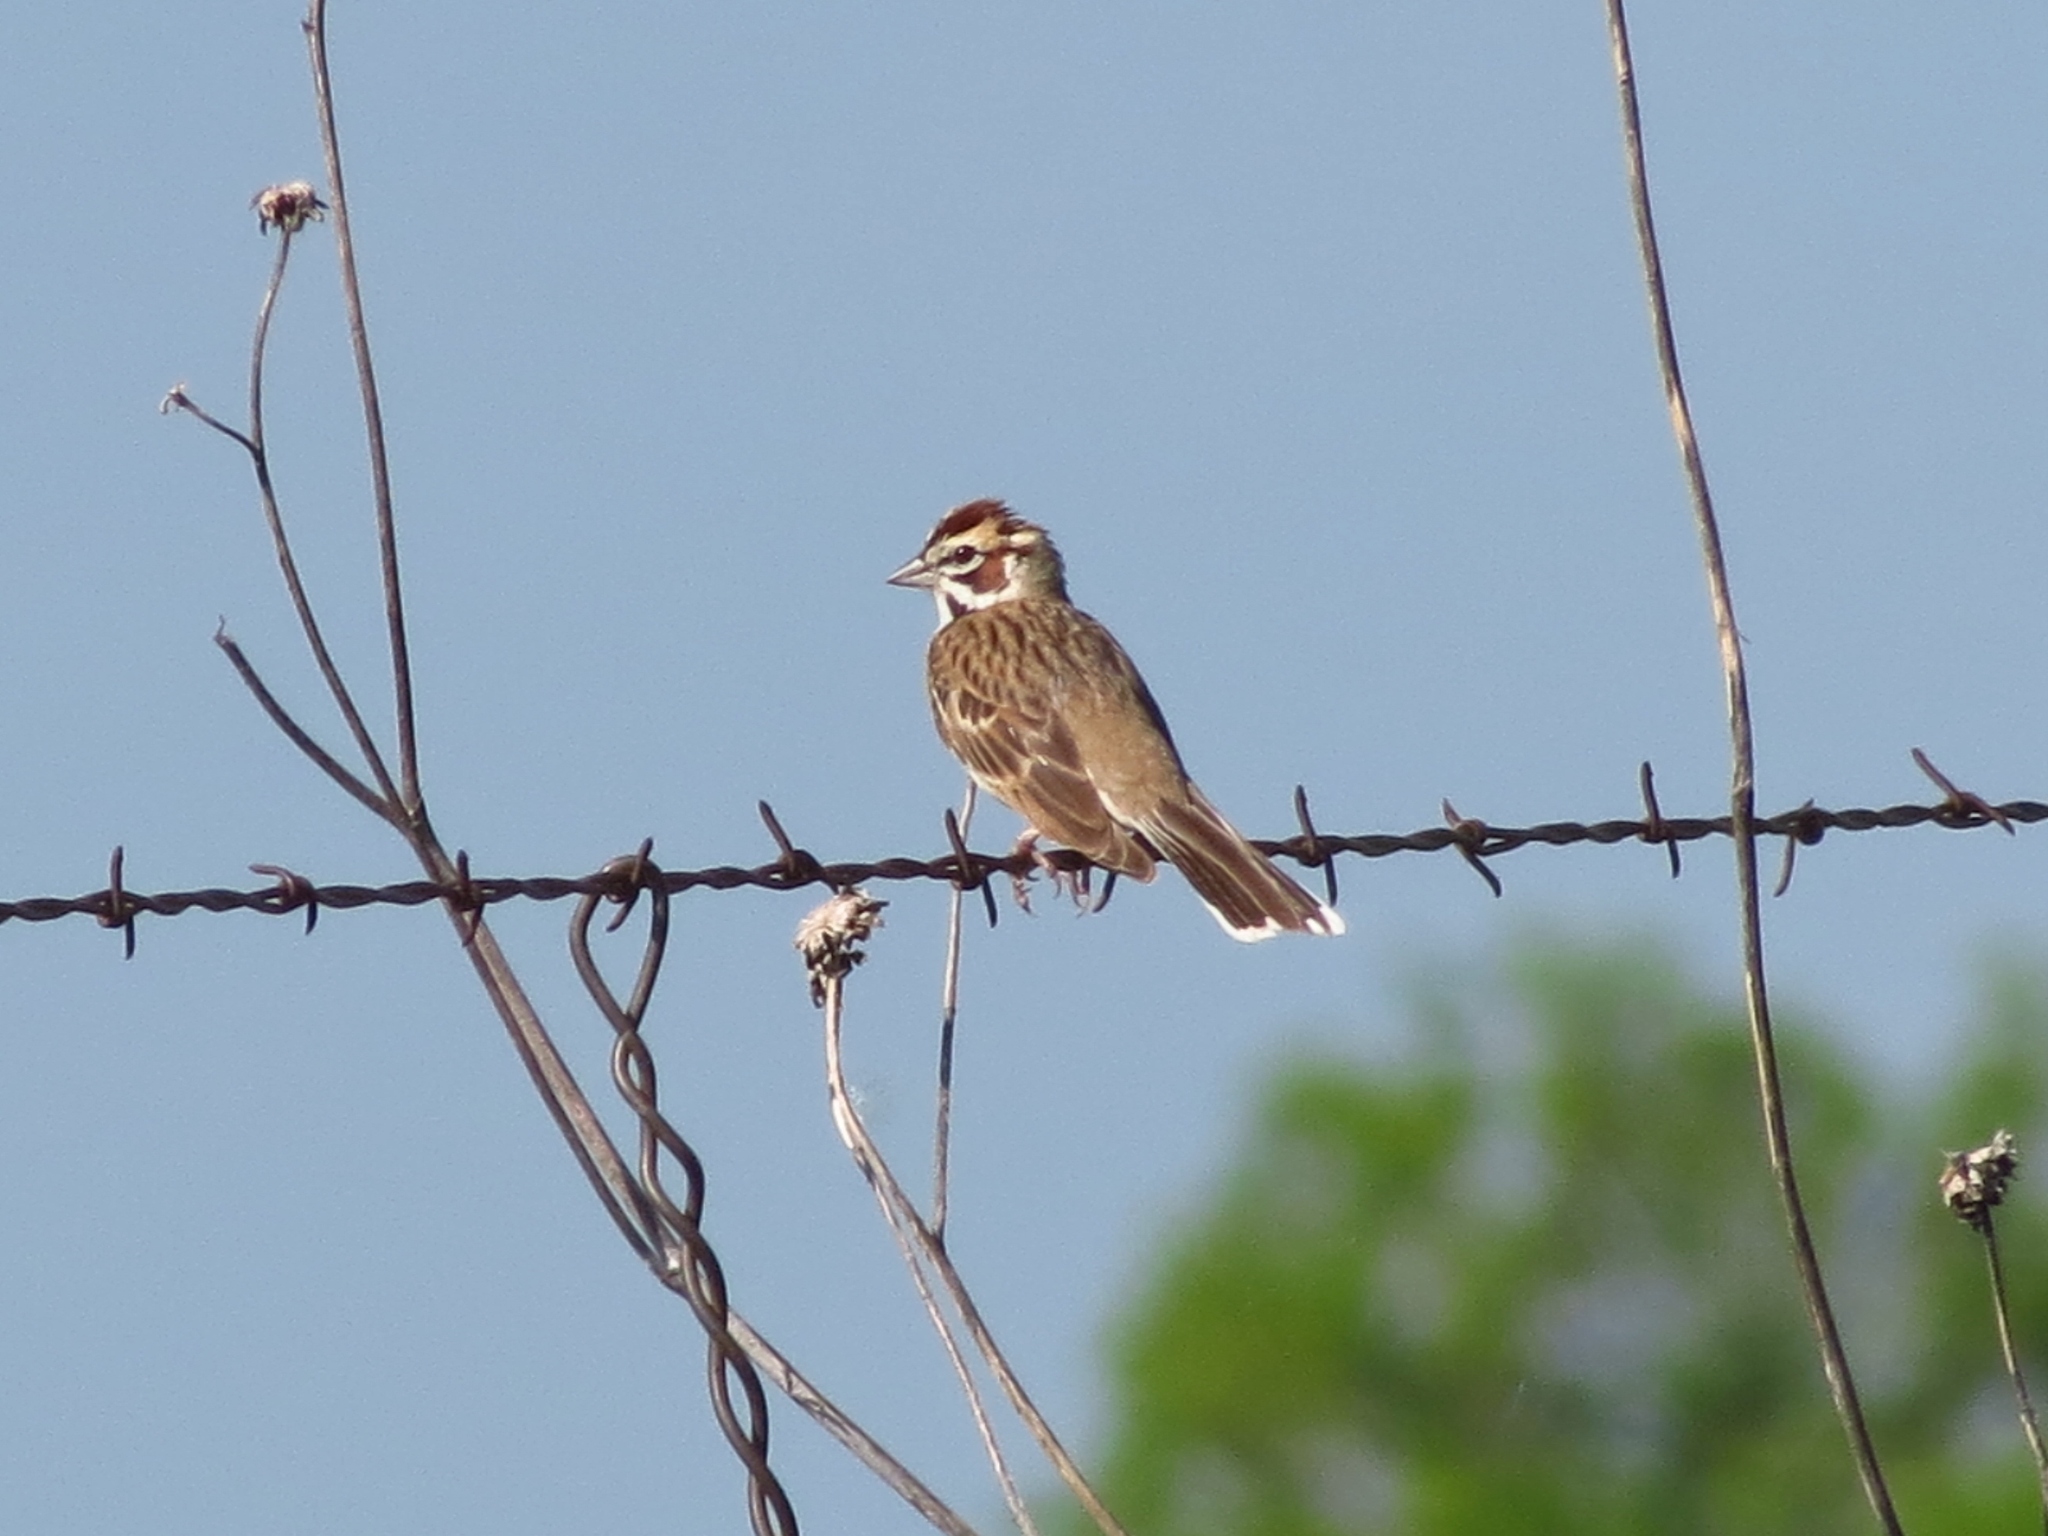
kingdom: Animalia
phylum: Chordata
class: Aves
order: Passeriformes
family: Passerellidae
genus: Chondestes
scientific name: Chondestes grammacus
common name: Lark sparrow
